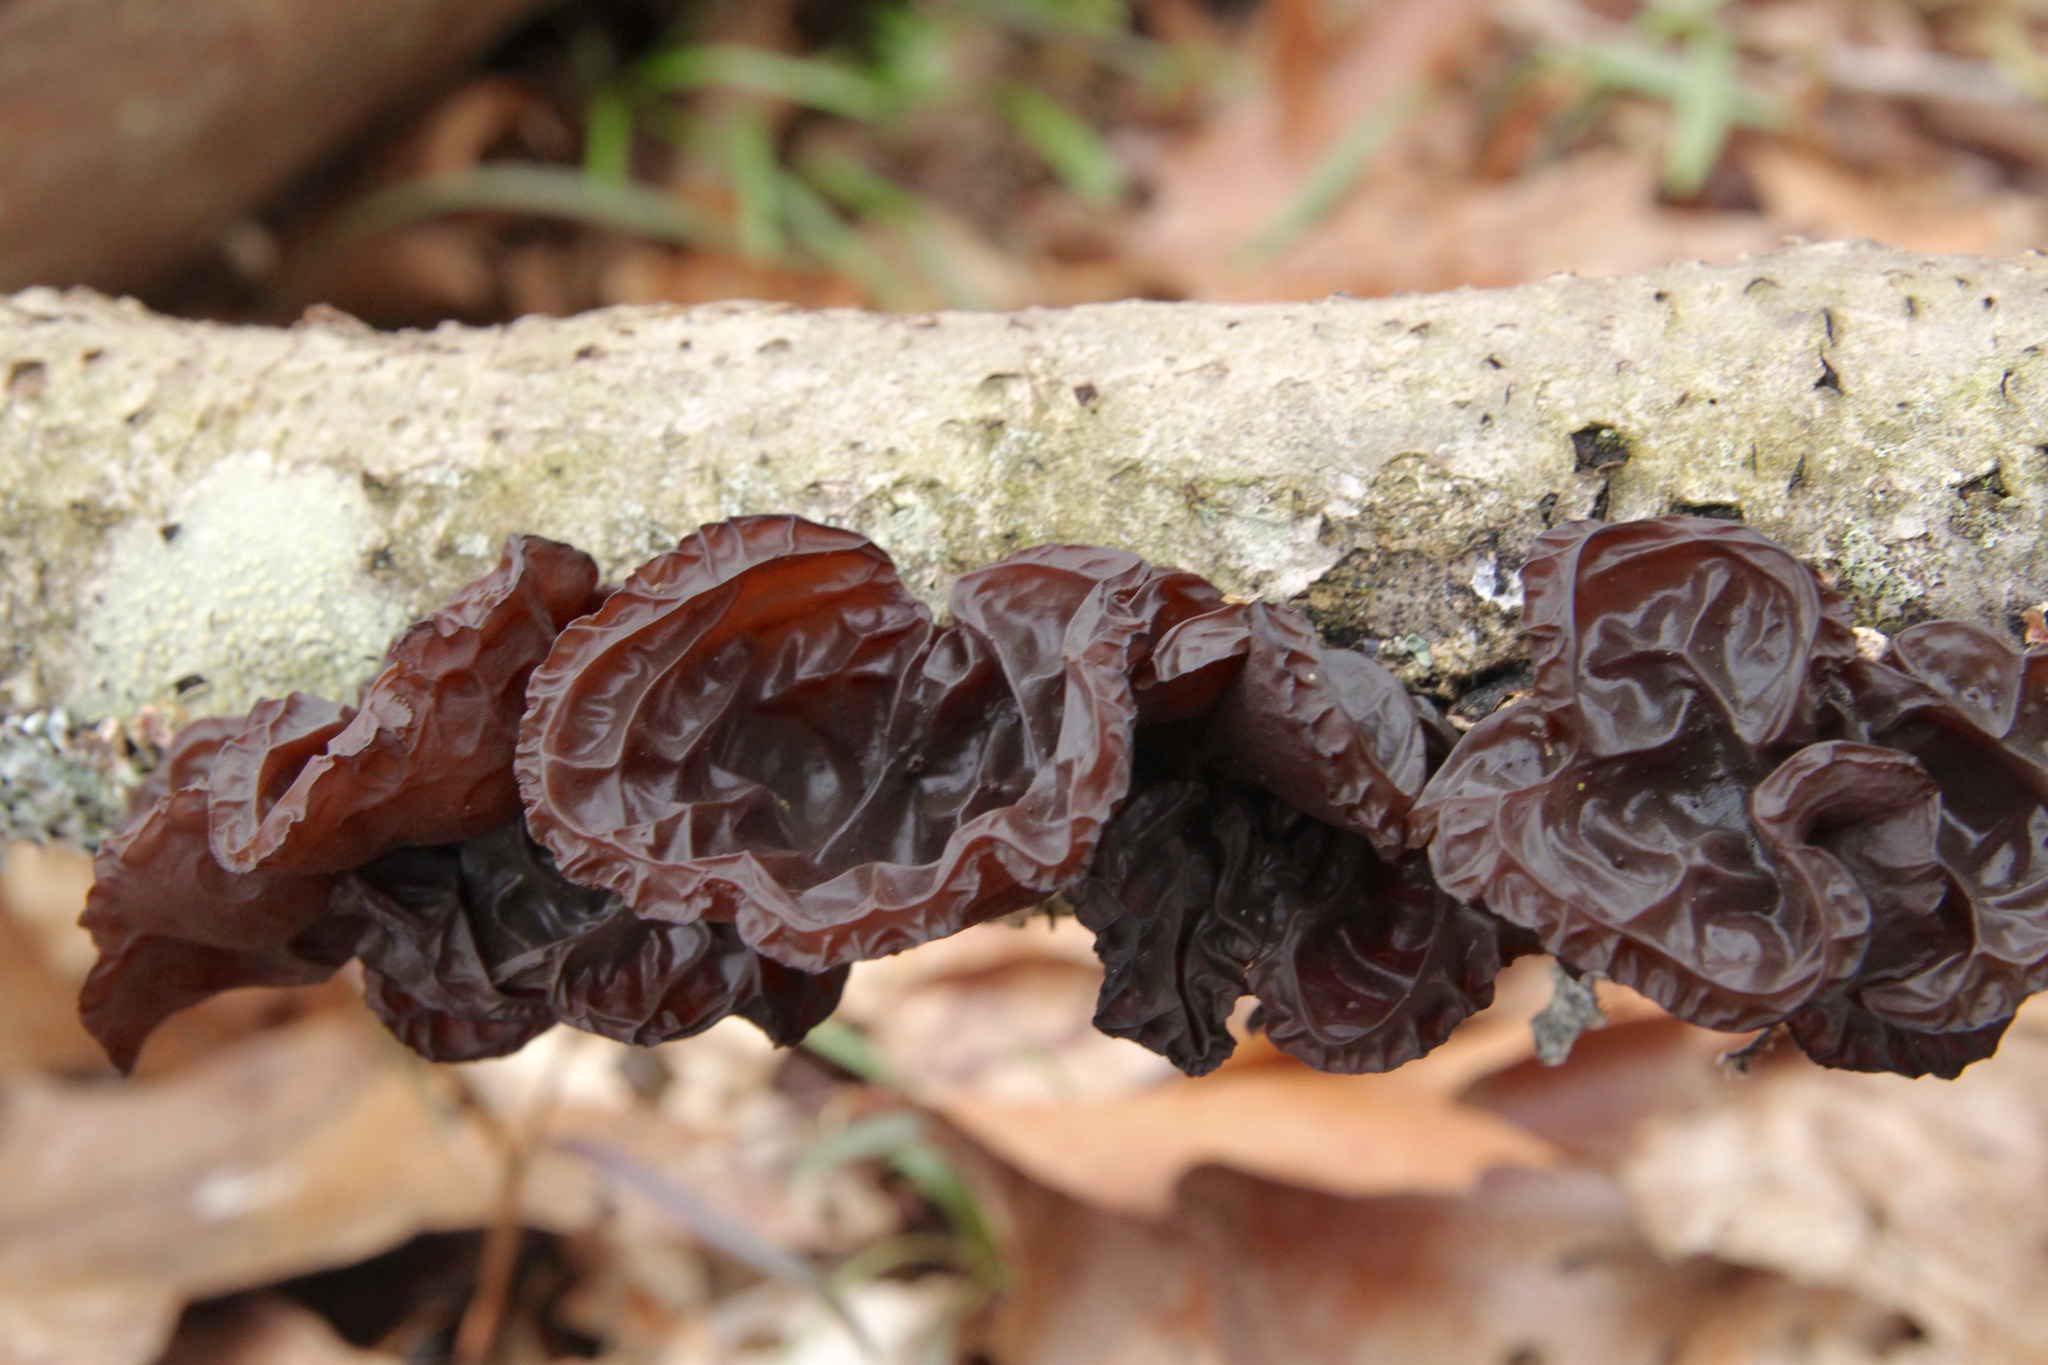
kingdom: Fungi
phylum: Basidiomycota
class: Agaricomycetes
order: Auriculariales
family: Auriculariaceae
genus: Exidia
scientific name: Exidia
